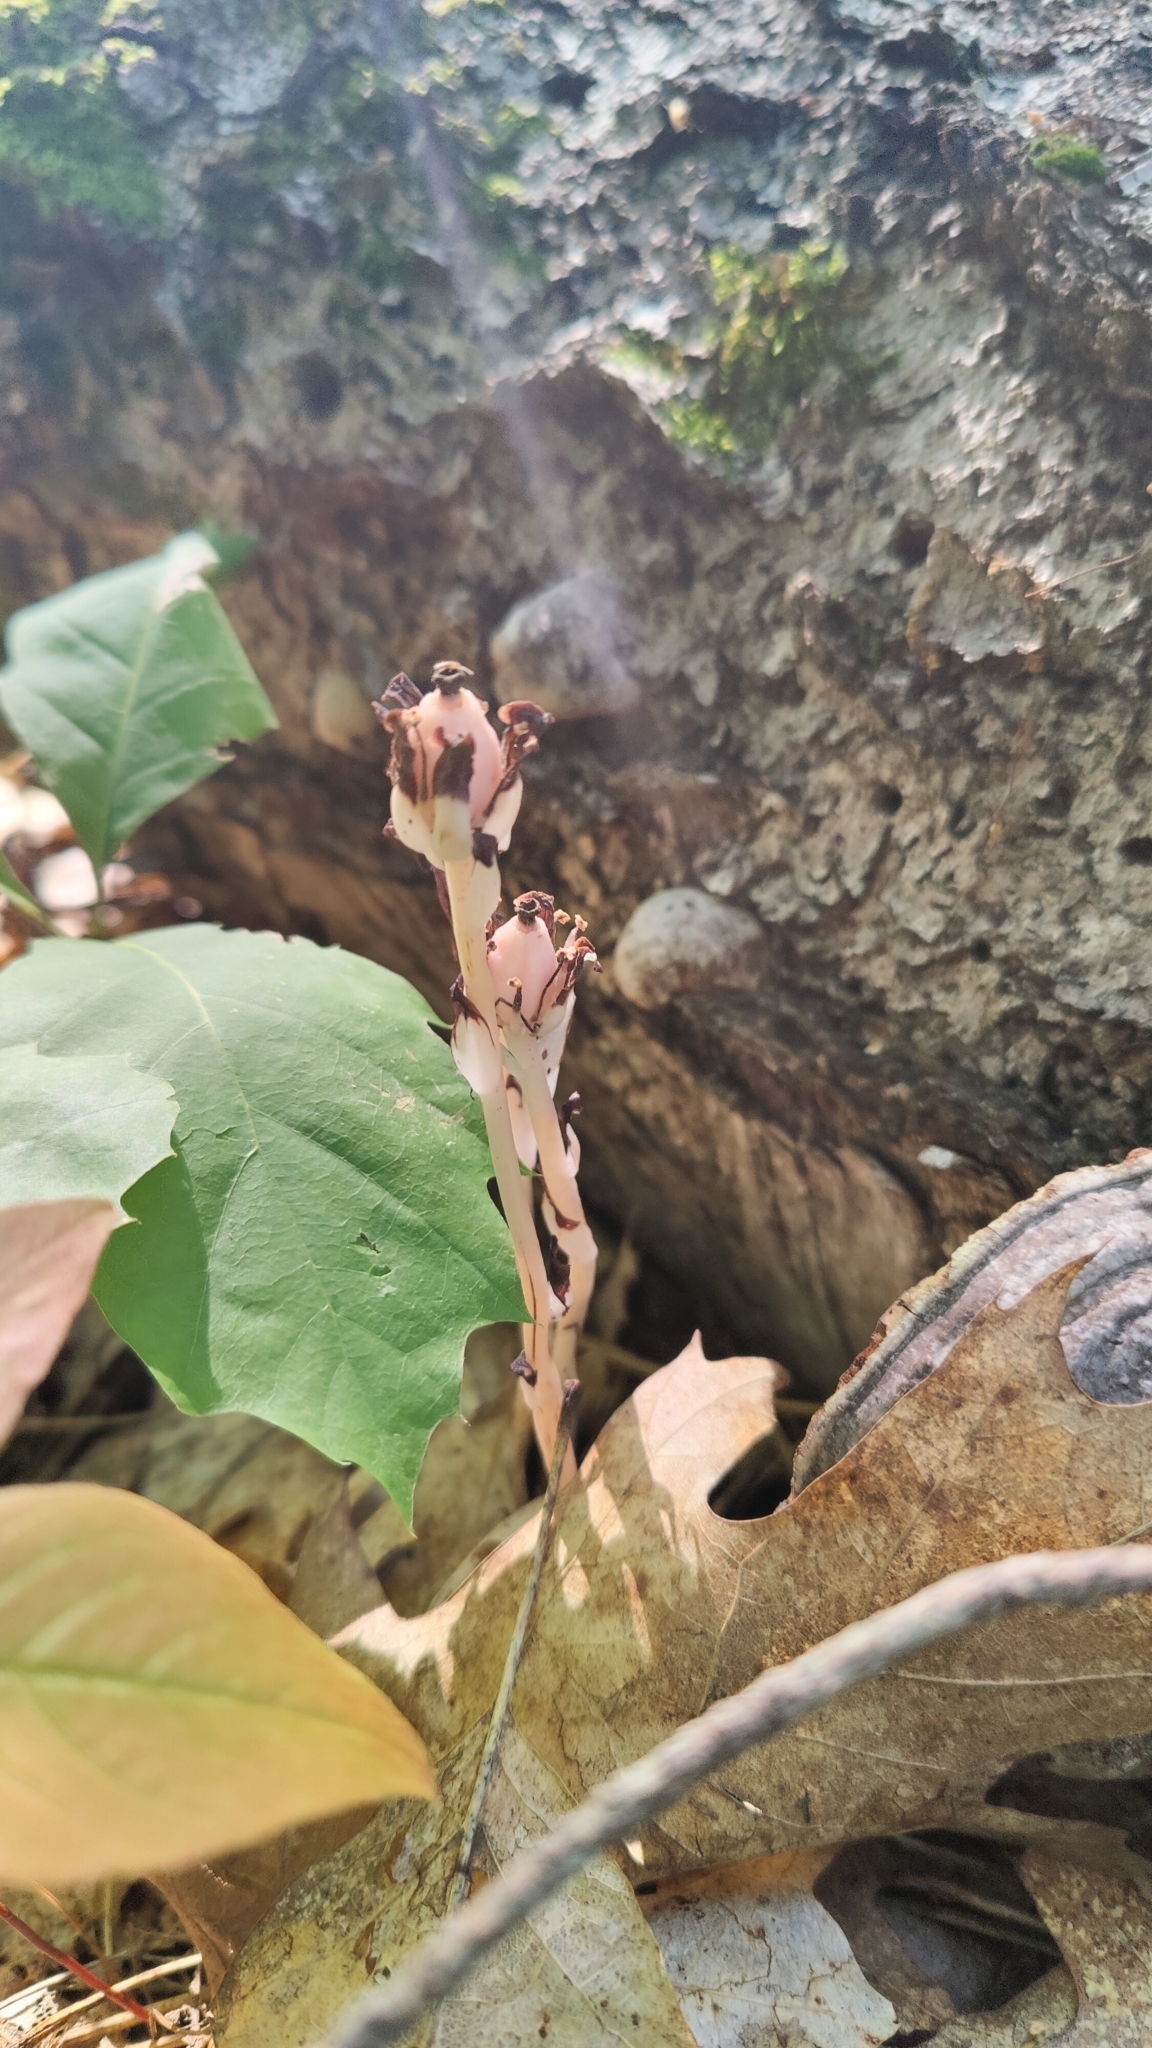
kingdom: Plantae
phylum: Tracheophyta
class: Magnoliopsida
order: Ericales
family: Ericaceae
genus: Monotropa
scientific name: Monotropa uniflora
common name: Convulsion root
